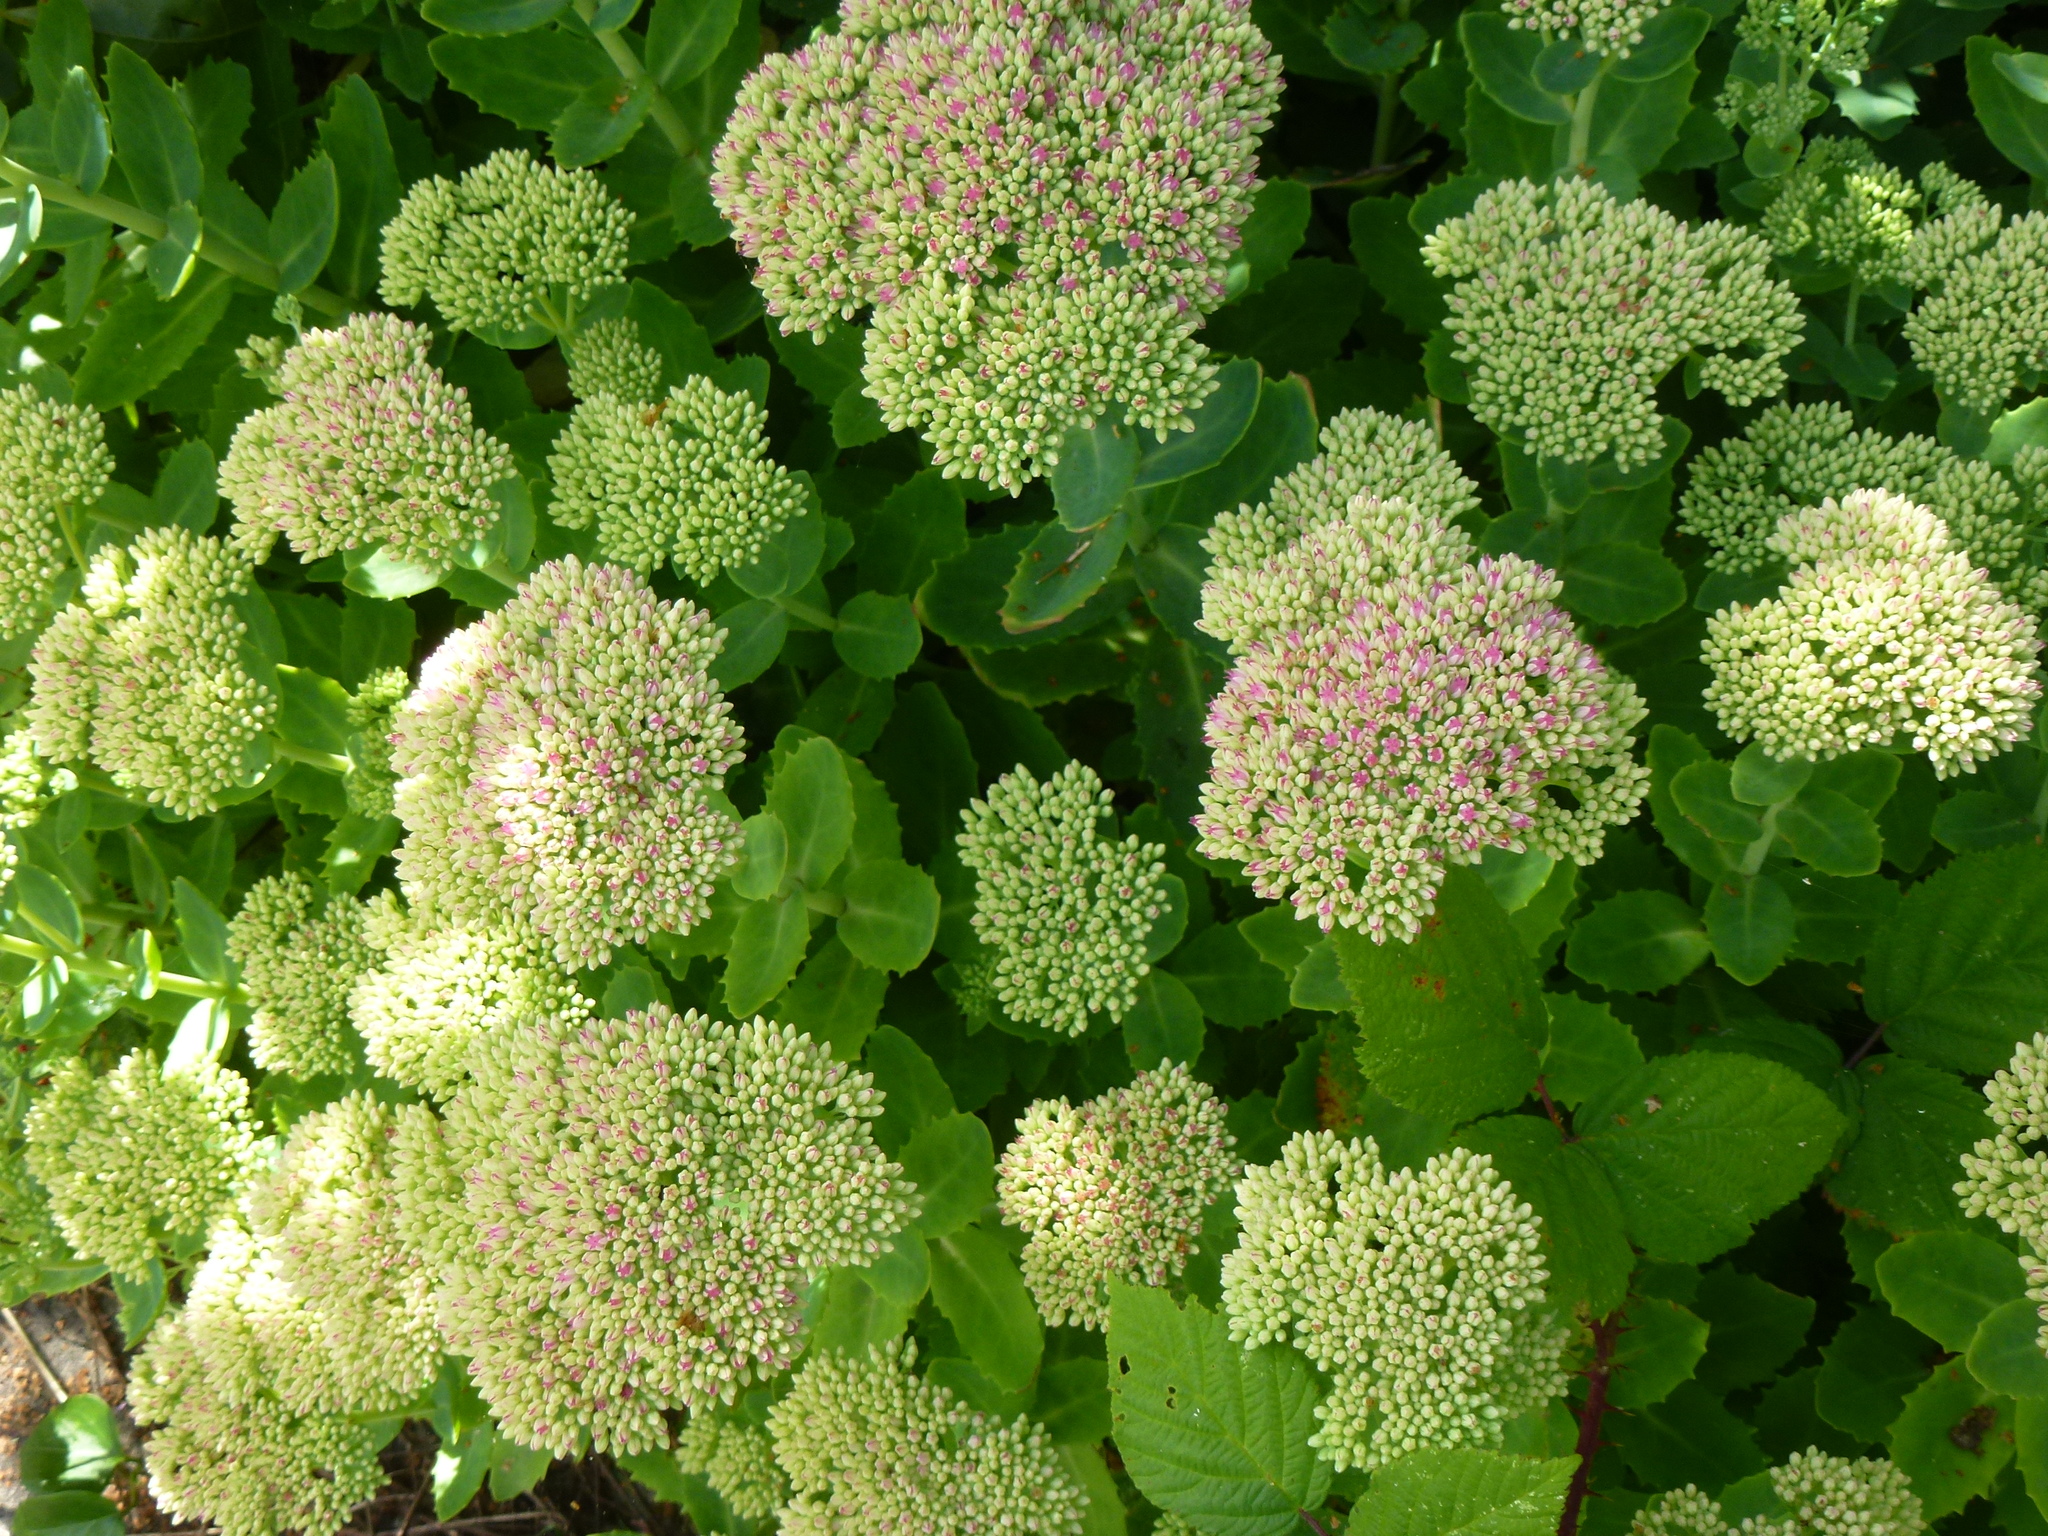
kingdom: Plantae
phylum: Tracheophyta
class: Magnoliopsida
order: Saxifragales
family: Crassulaceae
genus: Hylotelephium
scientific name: Hylotelephium
